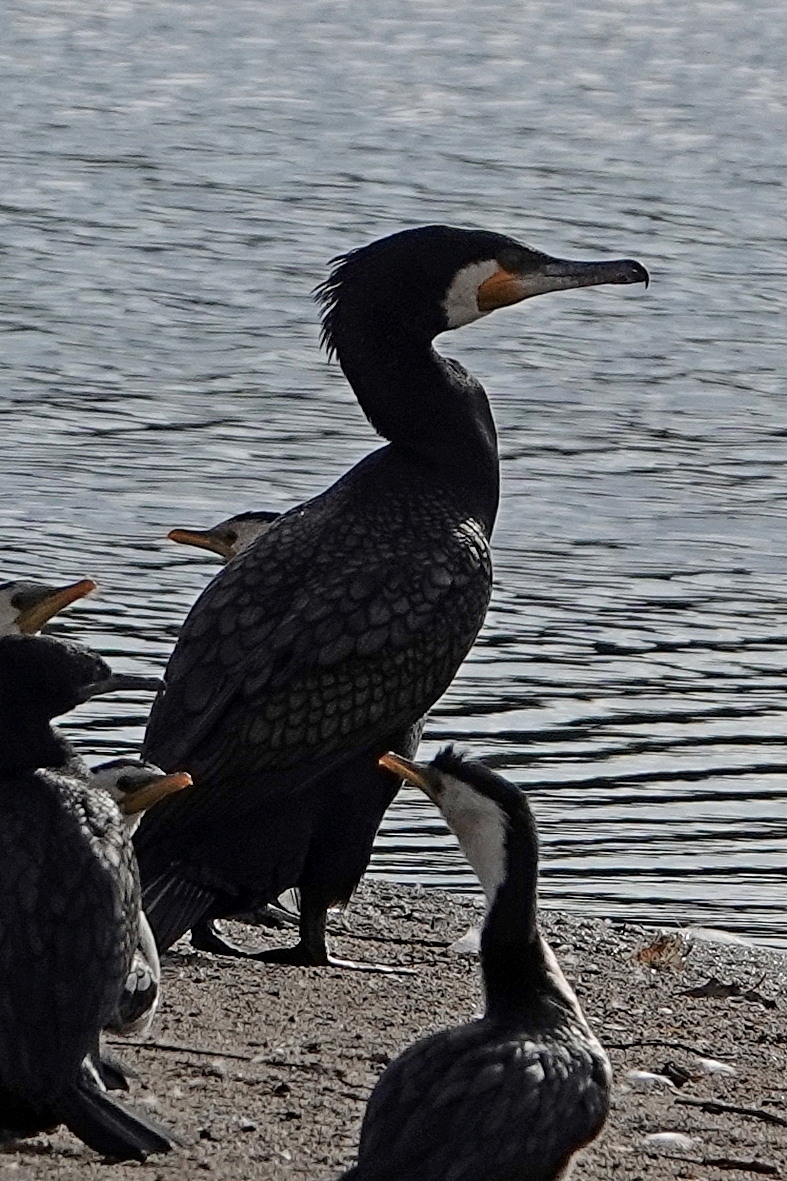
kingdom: Animalia
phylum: Chordata
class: Aves
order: Suliformes
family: Phalacrocoracidae
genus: Phalacrocorax
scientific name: Phalacrocorax carbo
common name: Great cormorant
